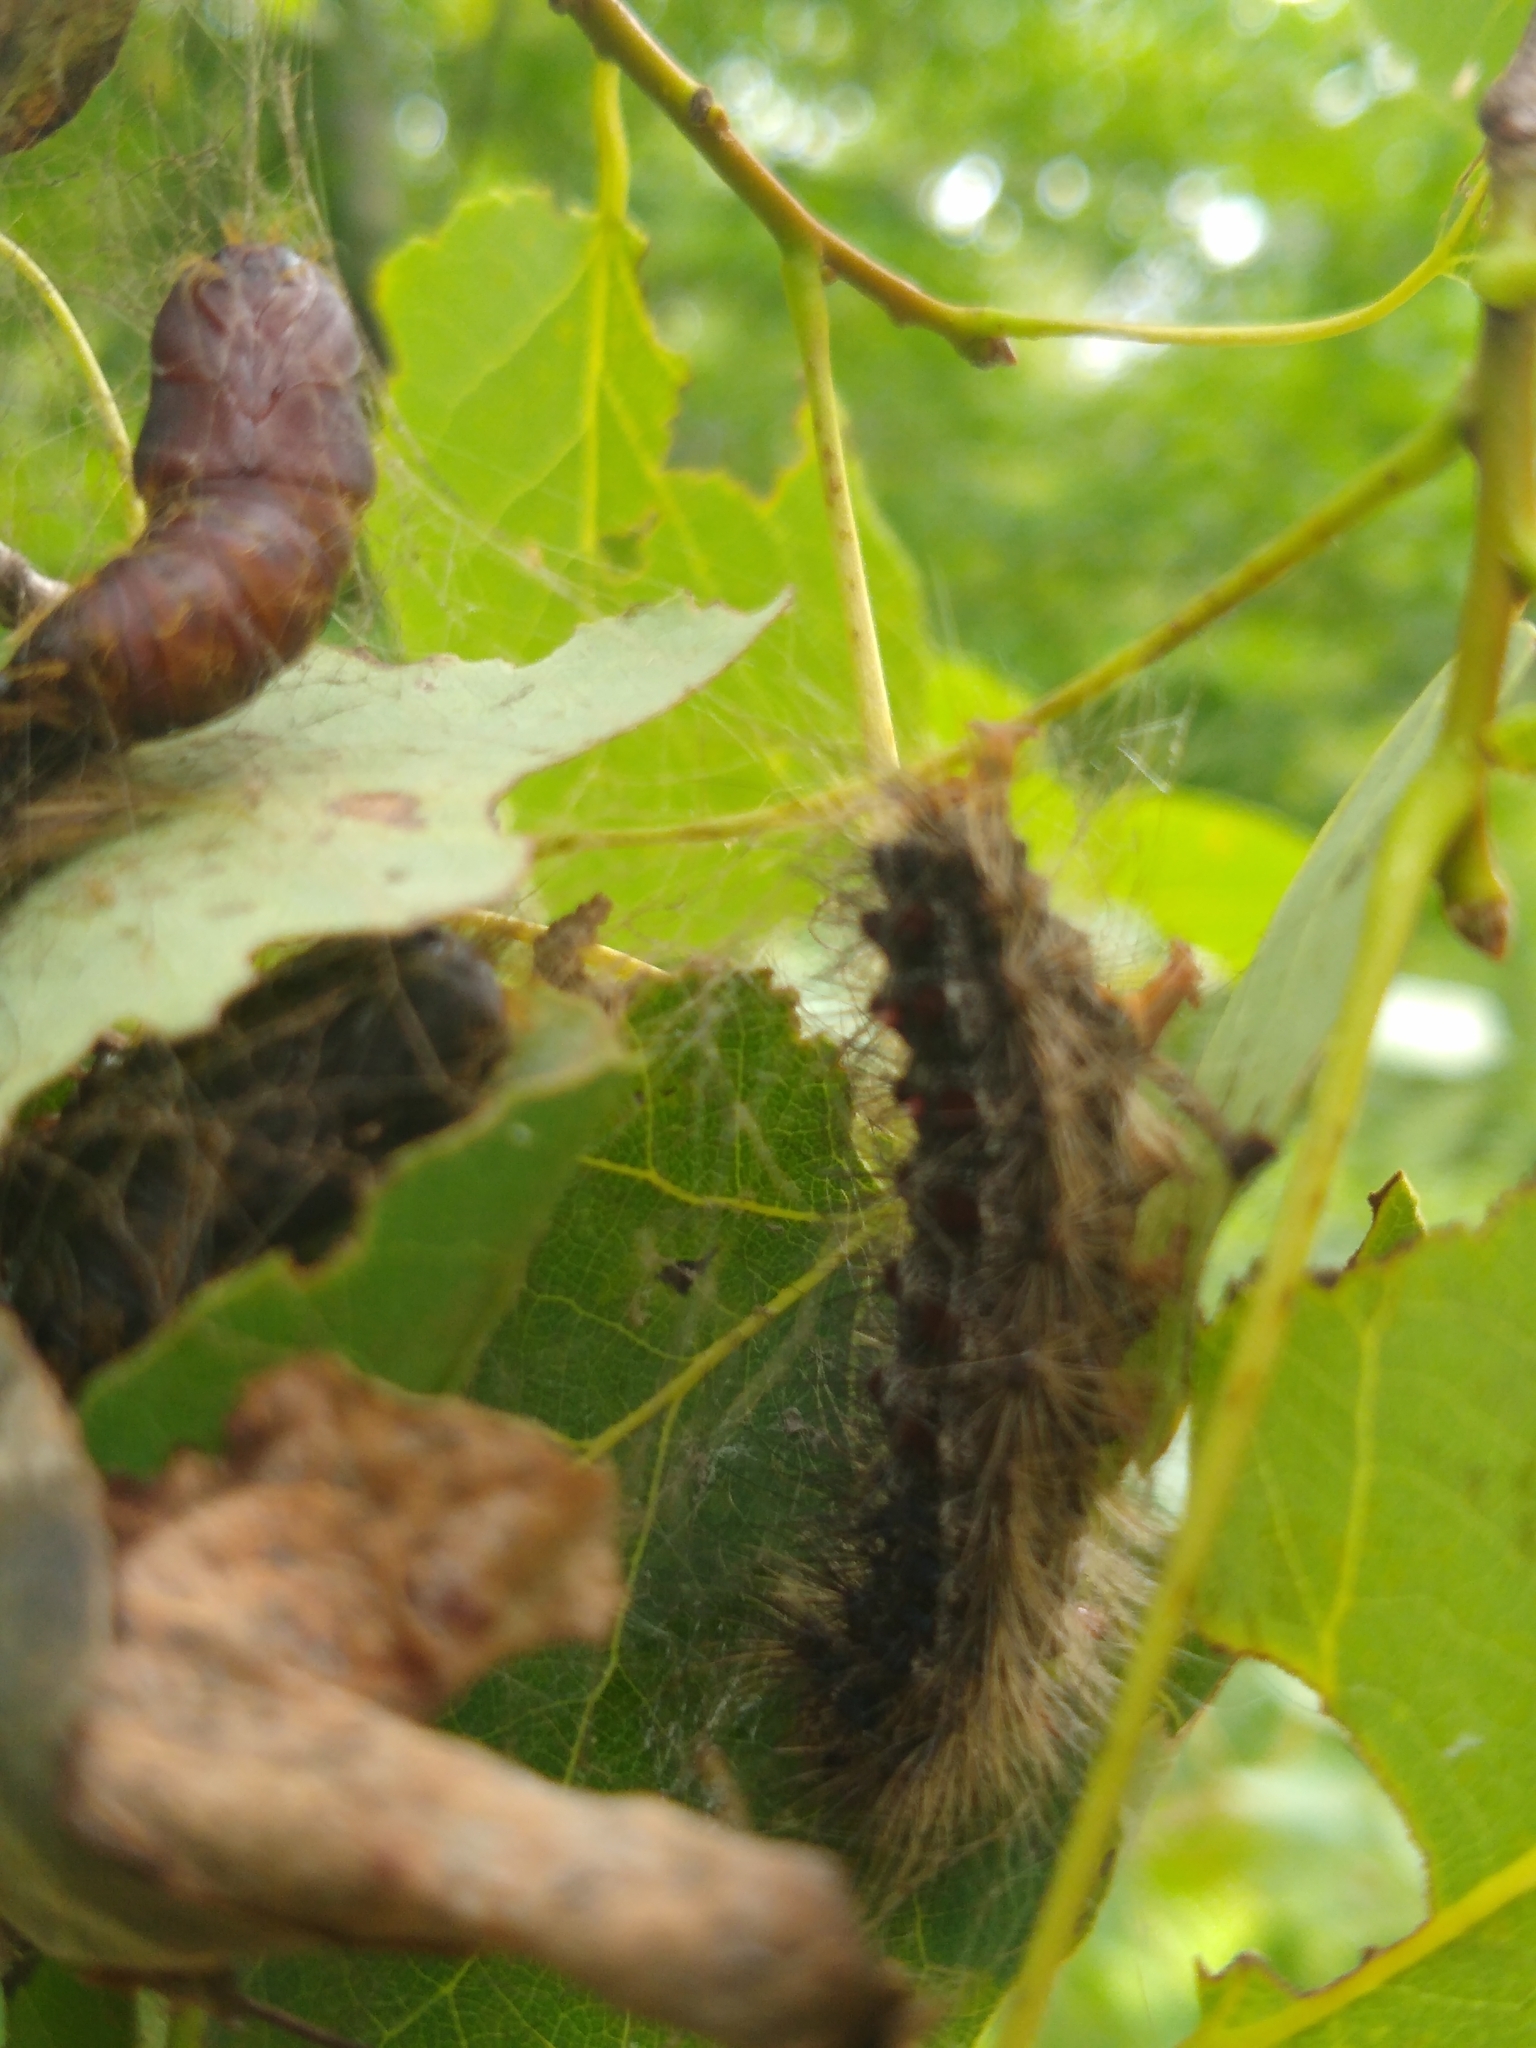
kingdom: Animalia
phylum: Arthropoda
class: Insecta
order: Lepidoptera
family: Erebidae
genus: Lymantria
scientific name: Lymantria dispar
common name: Gypsy moth
